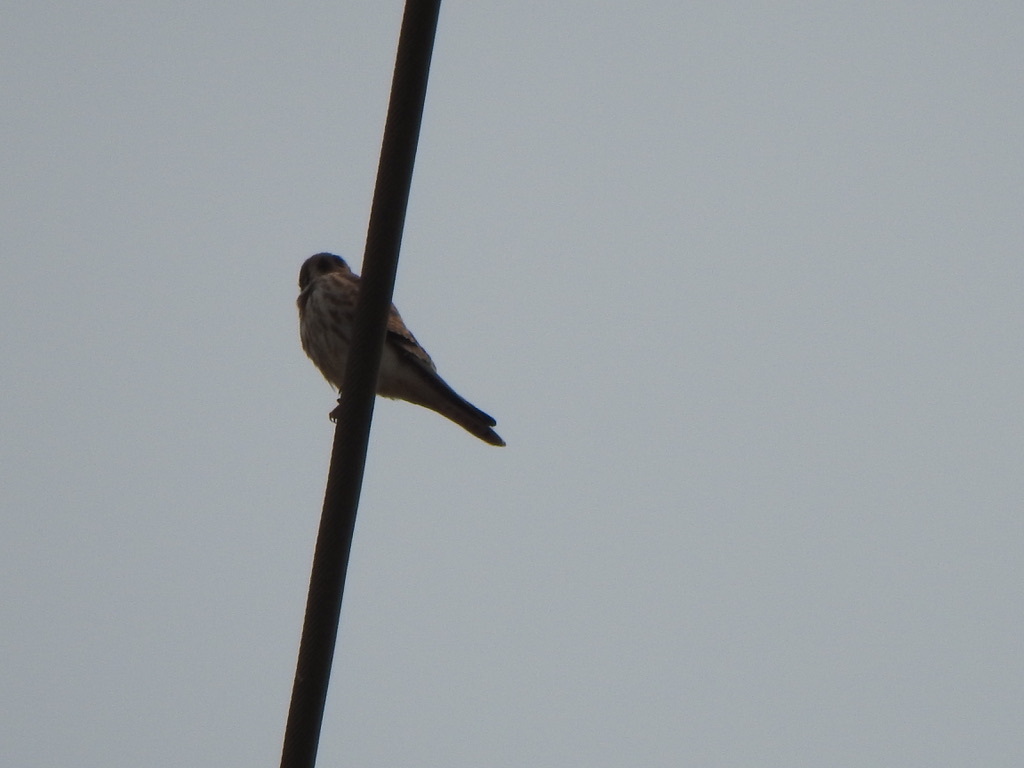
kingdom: Animalia
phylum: Chordata
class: Aves
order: Falconiformes
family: Falconidae
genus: Falco
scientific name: Falco sparverius
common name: American kestrel
